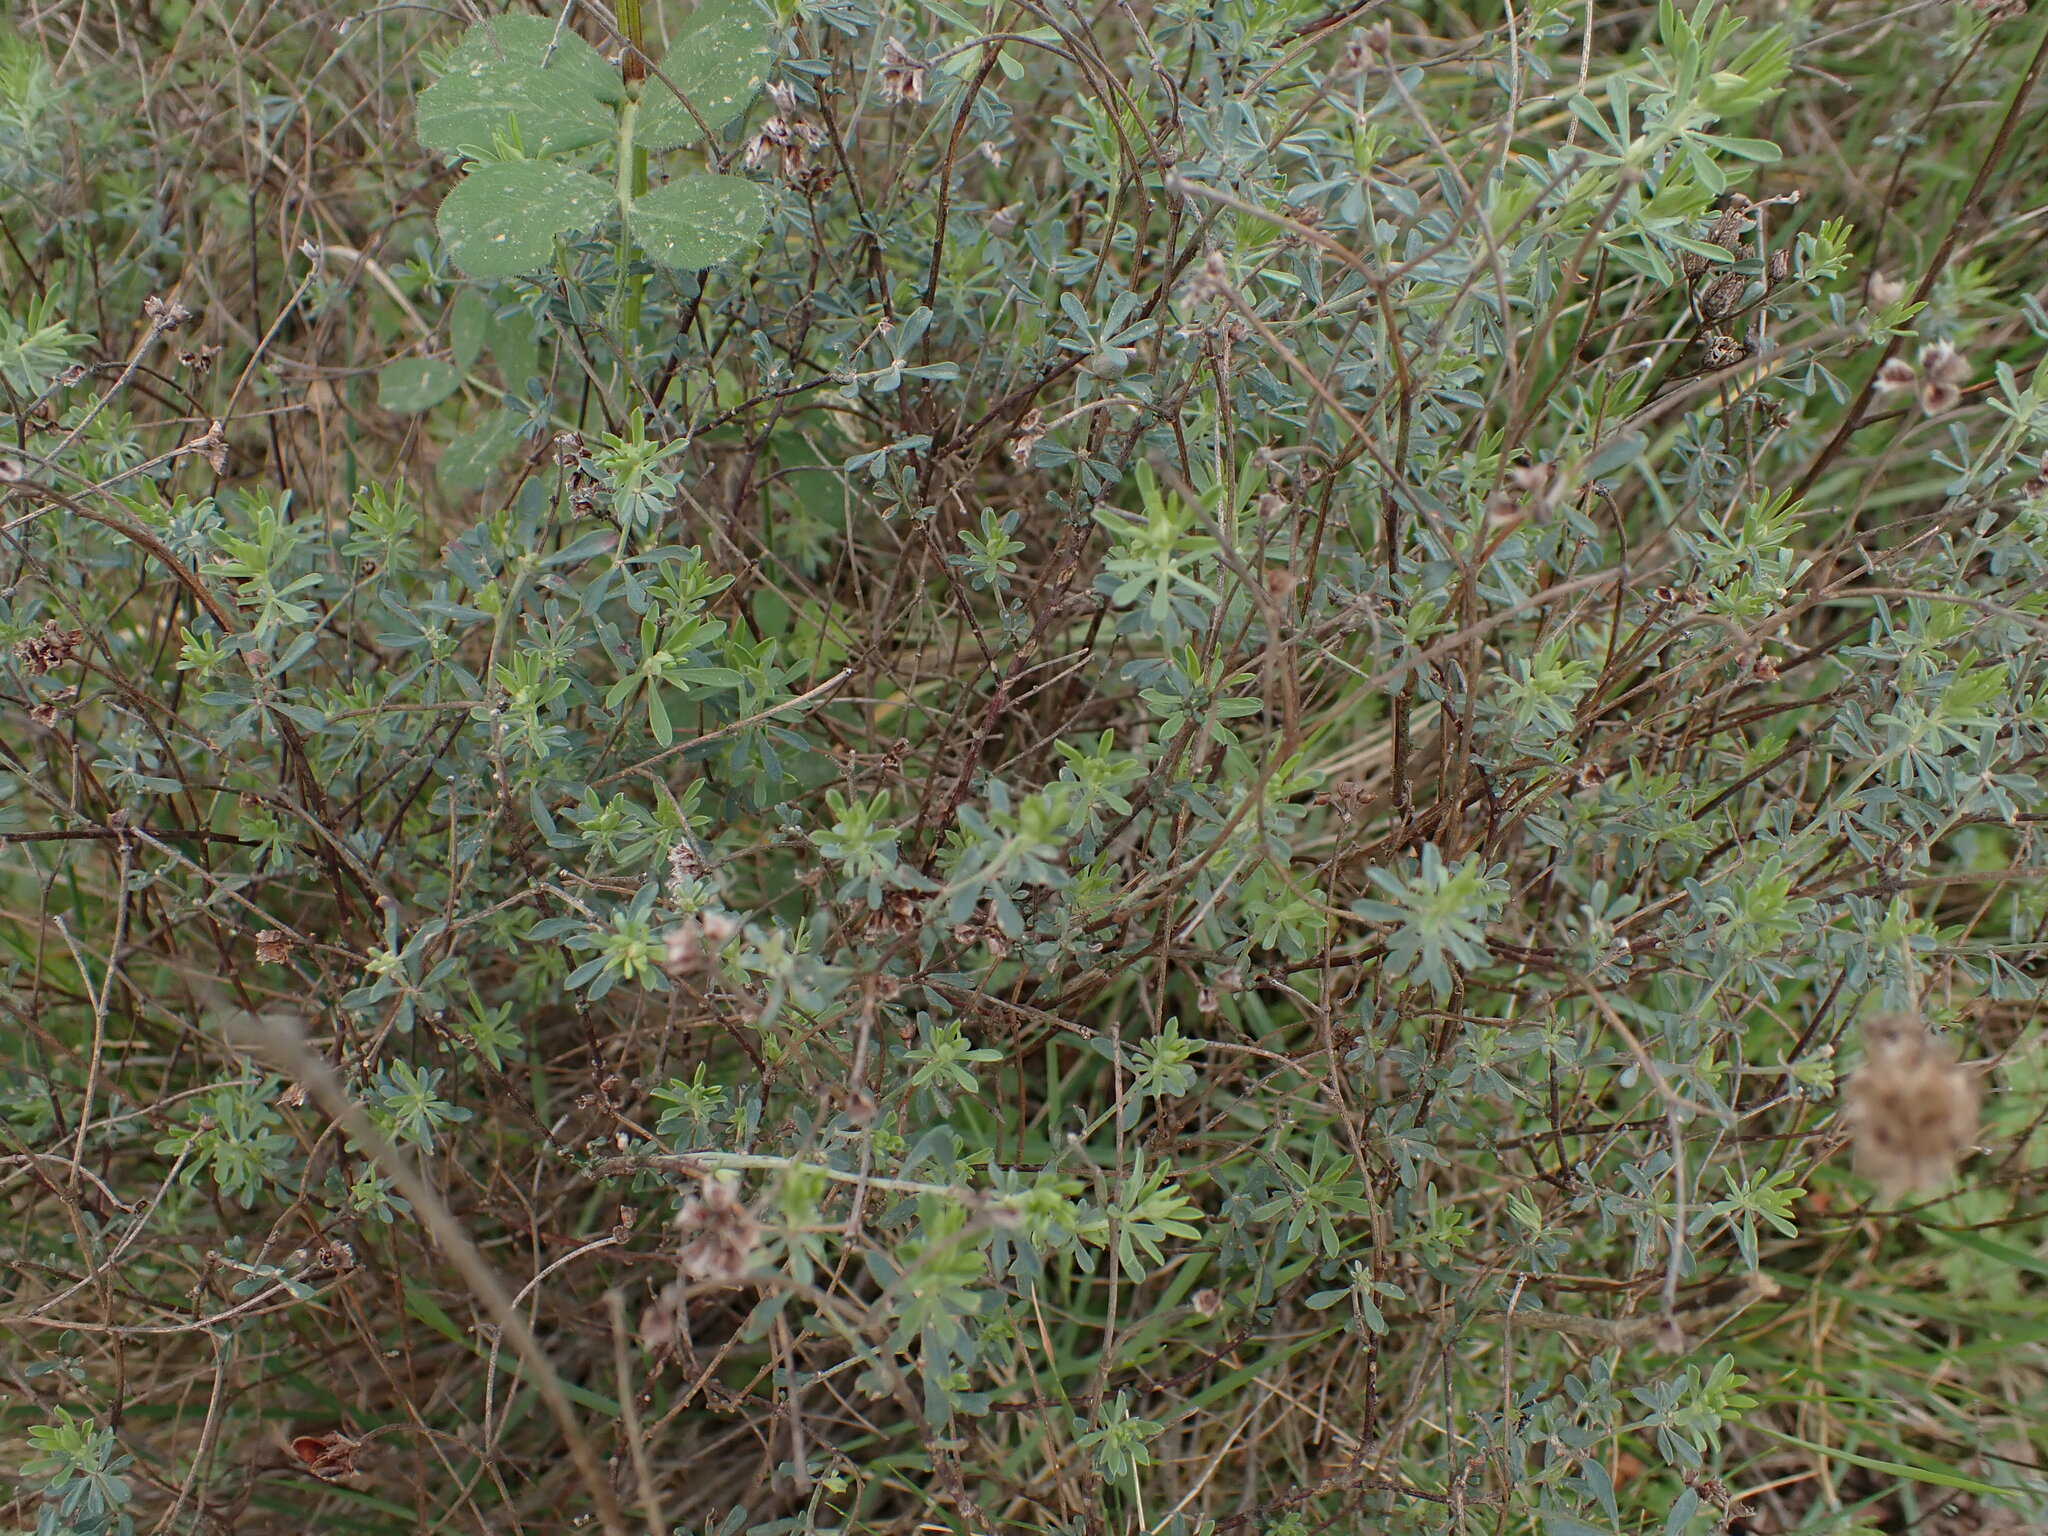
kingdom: Plantae
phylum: Tracheophyta
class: Magnoliopsida
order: Fabales
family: Fabaceae
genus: Lotus
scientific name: Lotus dorycnium
